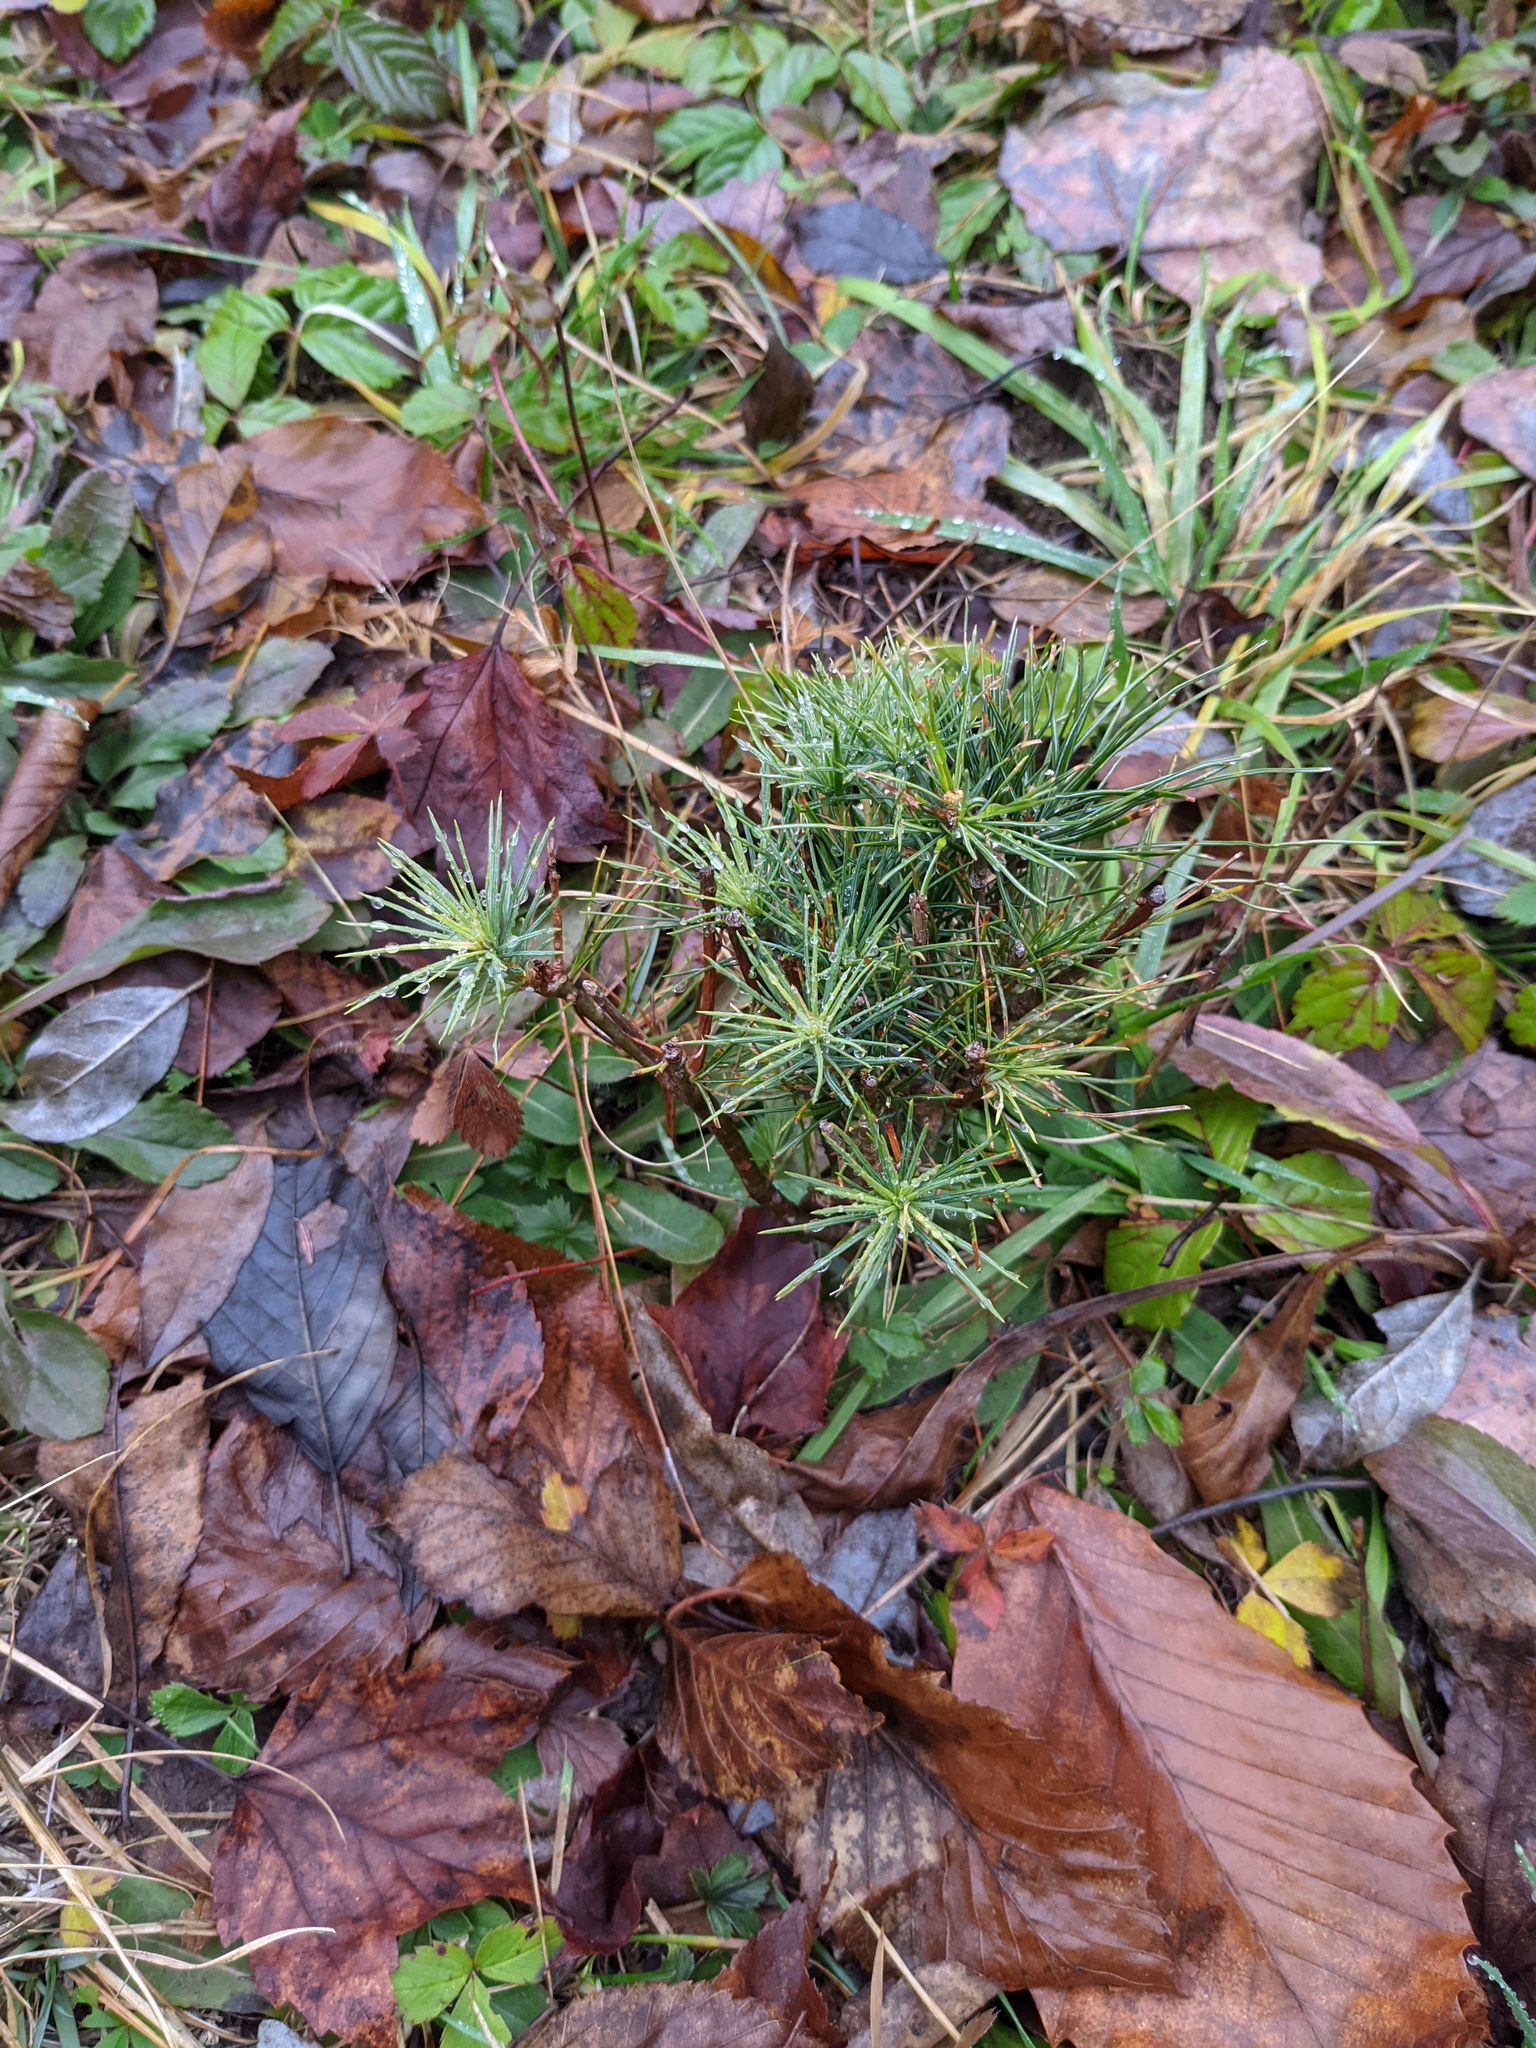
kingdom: Plantae
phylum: Tracheophyta
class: Pinopsida
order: Pinales
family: Pinaceae
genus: Pinus
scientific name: Pinus strobus
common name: Weymouth pine
